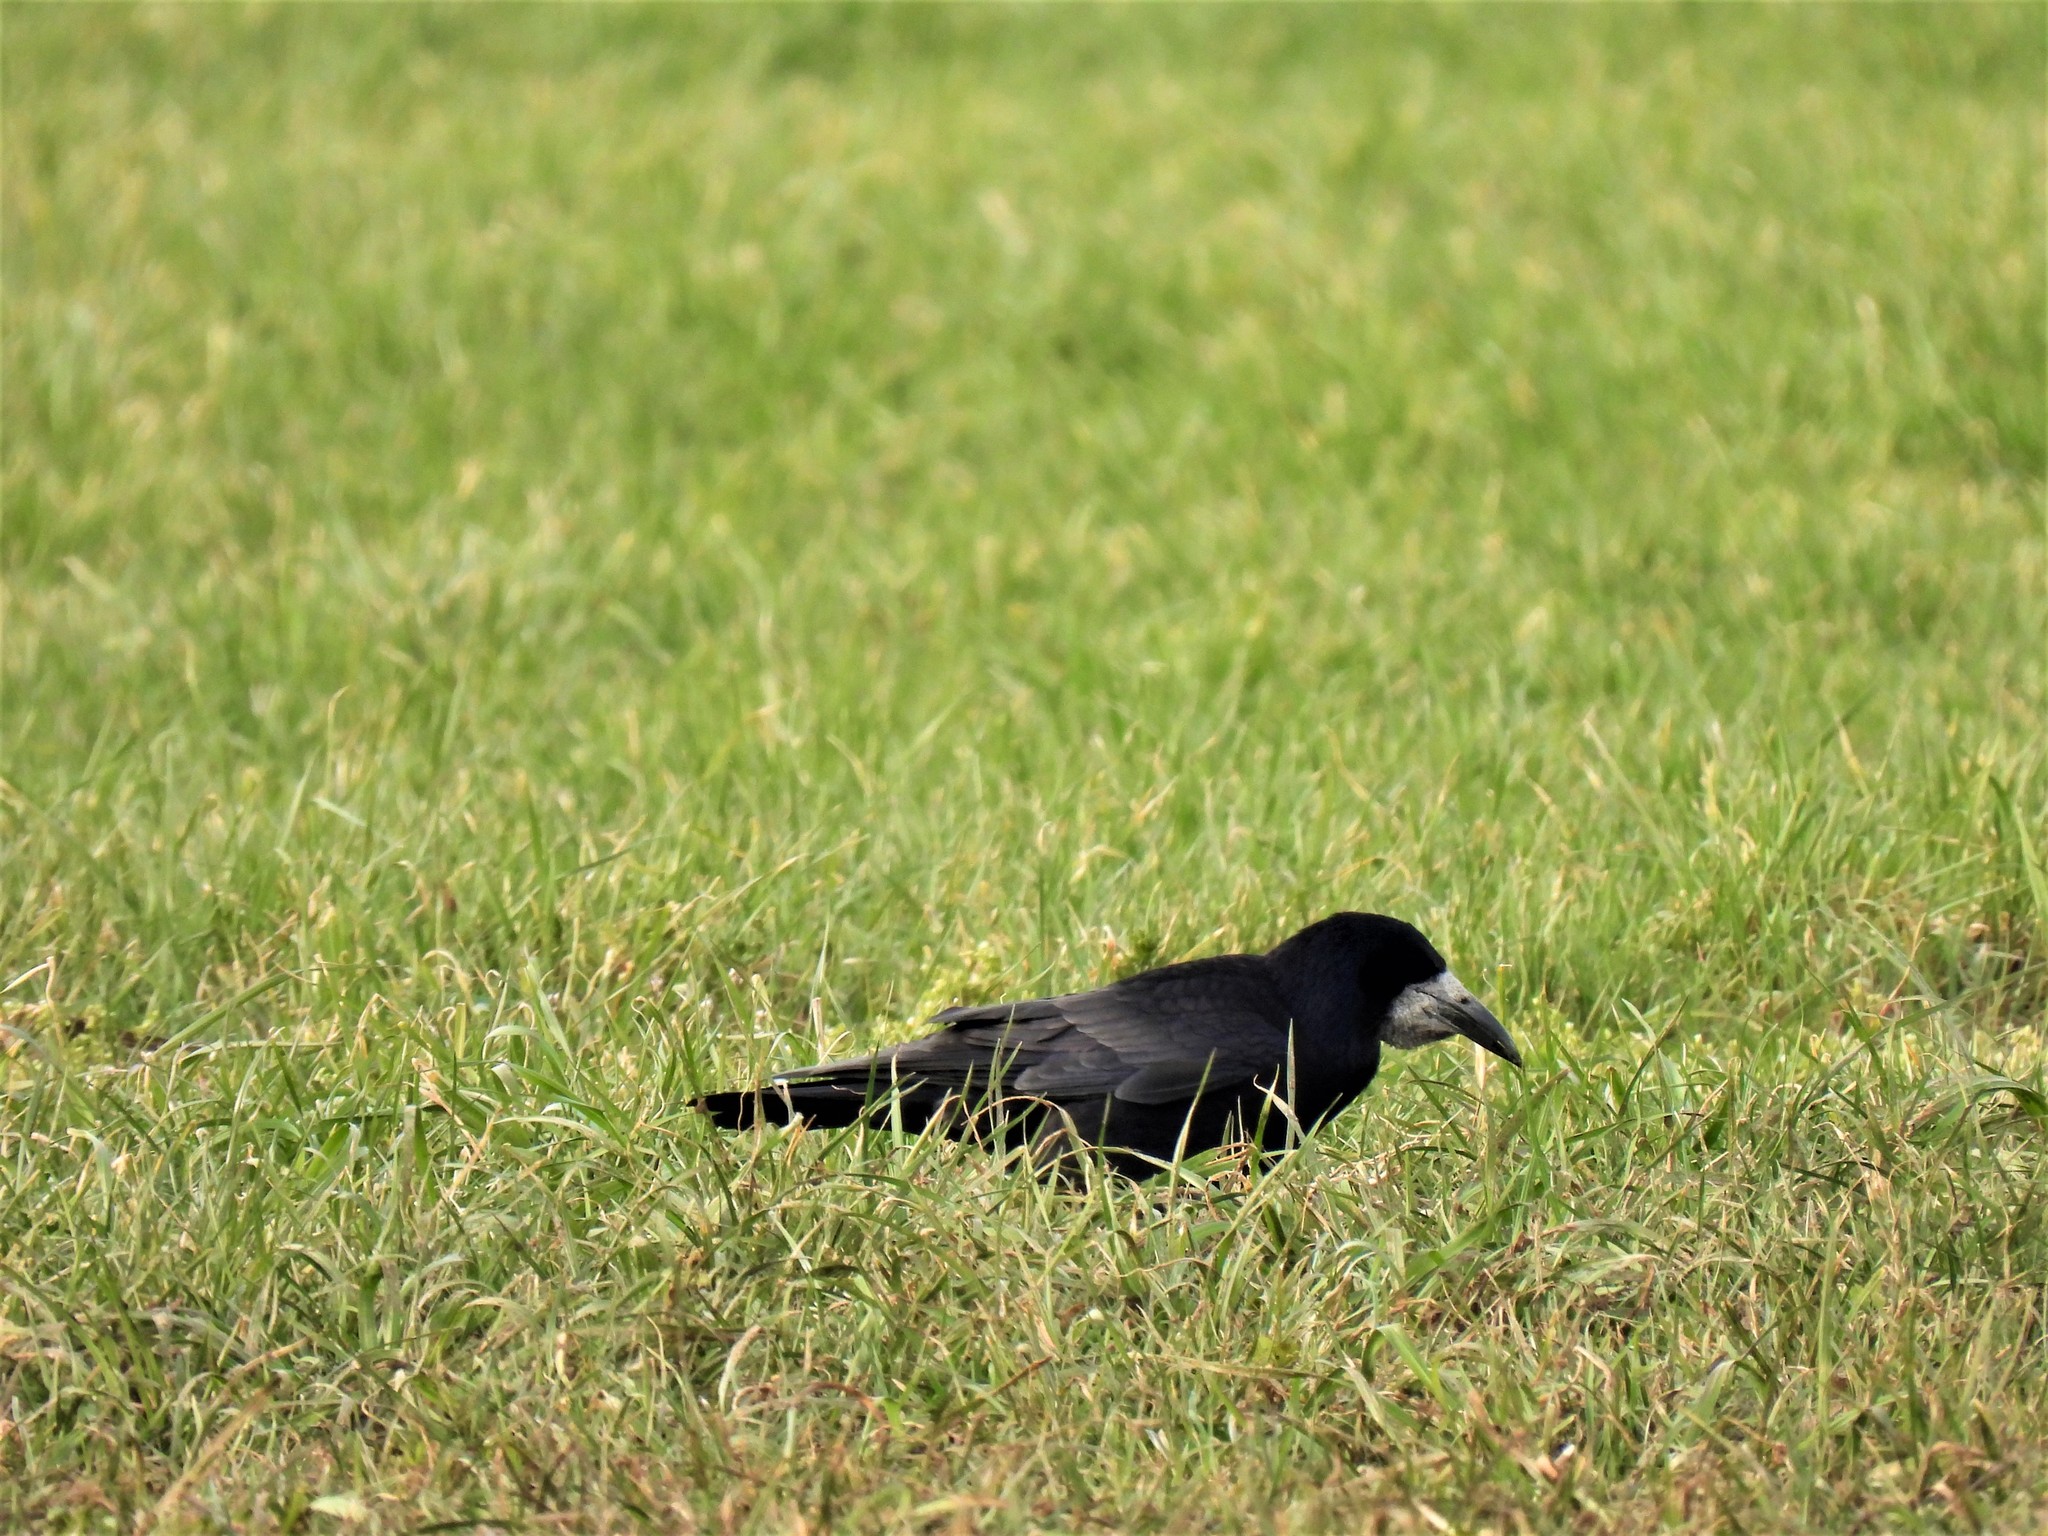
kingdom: Animalia
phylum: Chordata
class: Aves
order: Passeriformes
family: Corvidae
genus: Corvus
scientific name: Corvus frugilegus
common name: Rook
